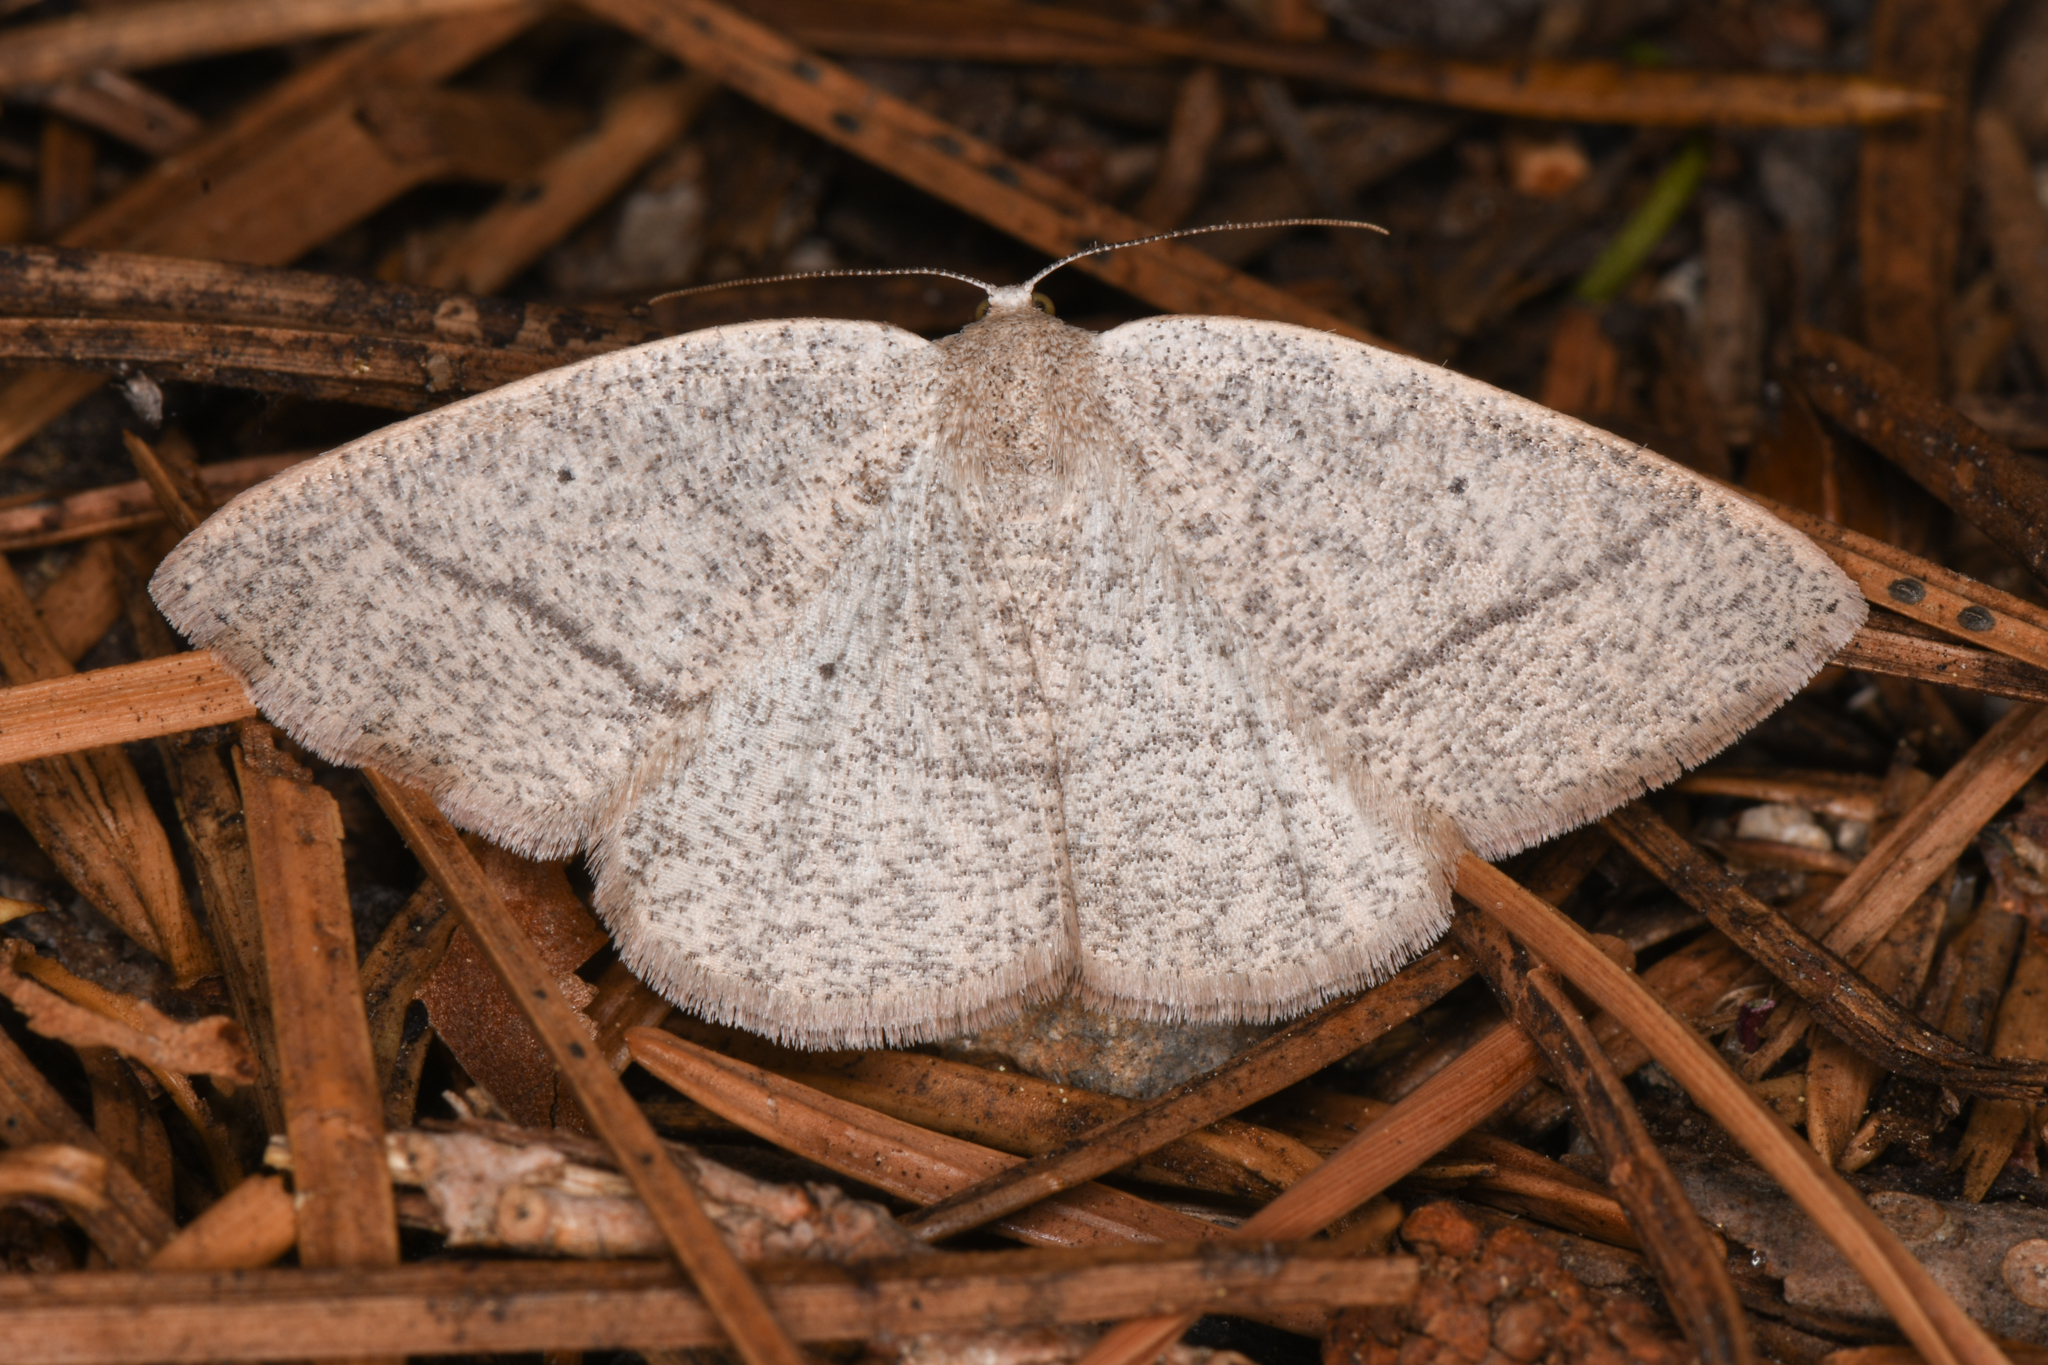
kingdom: Animalia
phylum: Arthropoda
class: Insecta
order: Lepidoptera
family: Geometridae
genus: Eudrepanulatrix
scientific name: Eudrepanulatrix rectifascia
